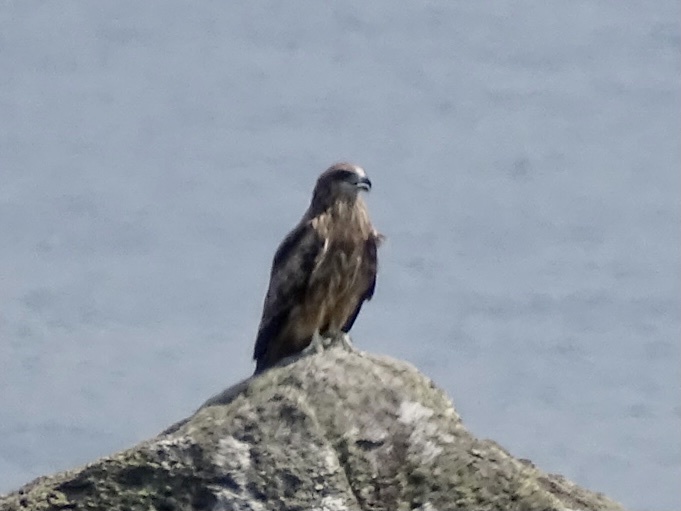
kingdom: Animalia
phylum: Chordata
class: Aves
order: Accipitriformes
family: Accipitridae
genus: Milvus
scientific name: Milvus migrans
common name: Black kite
